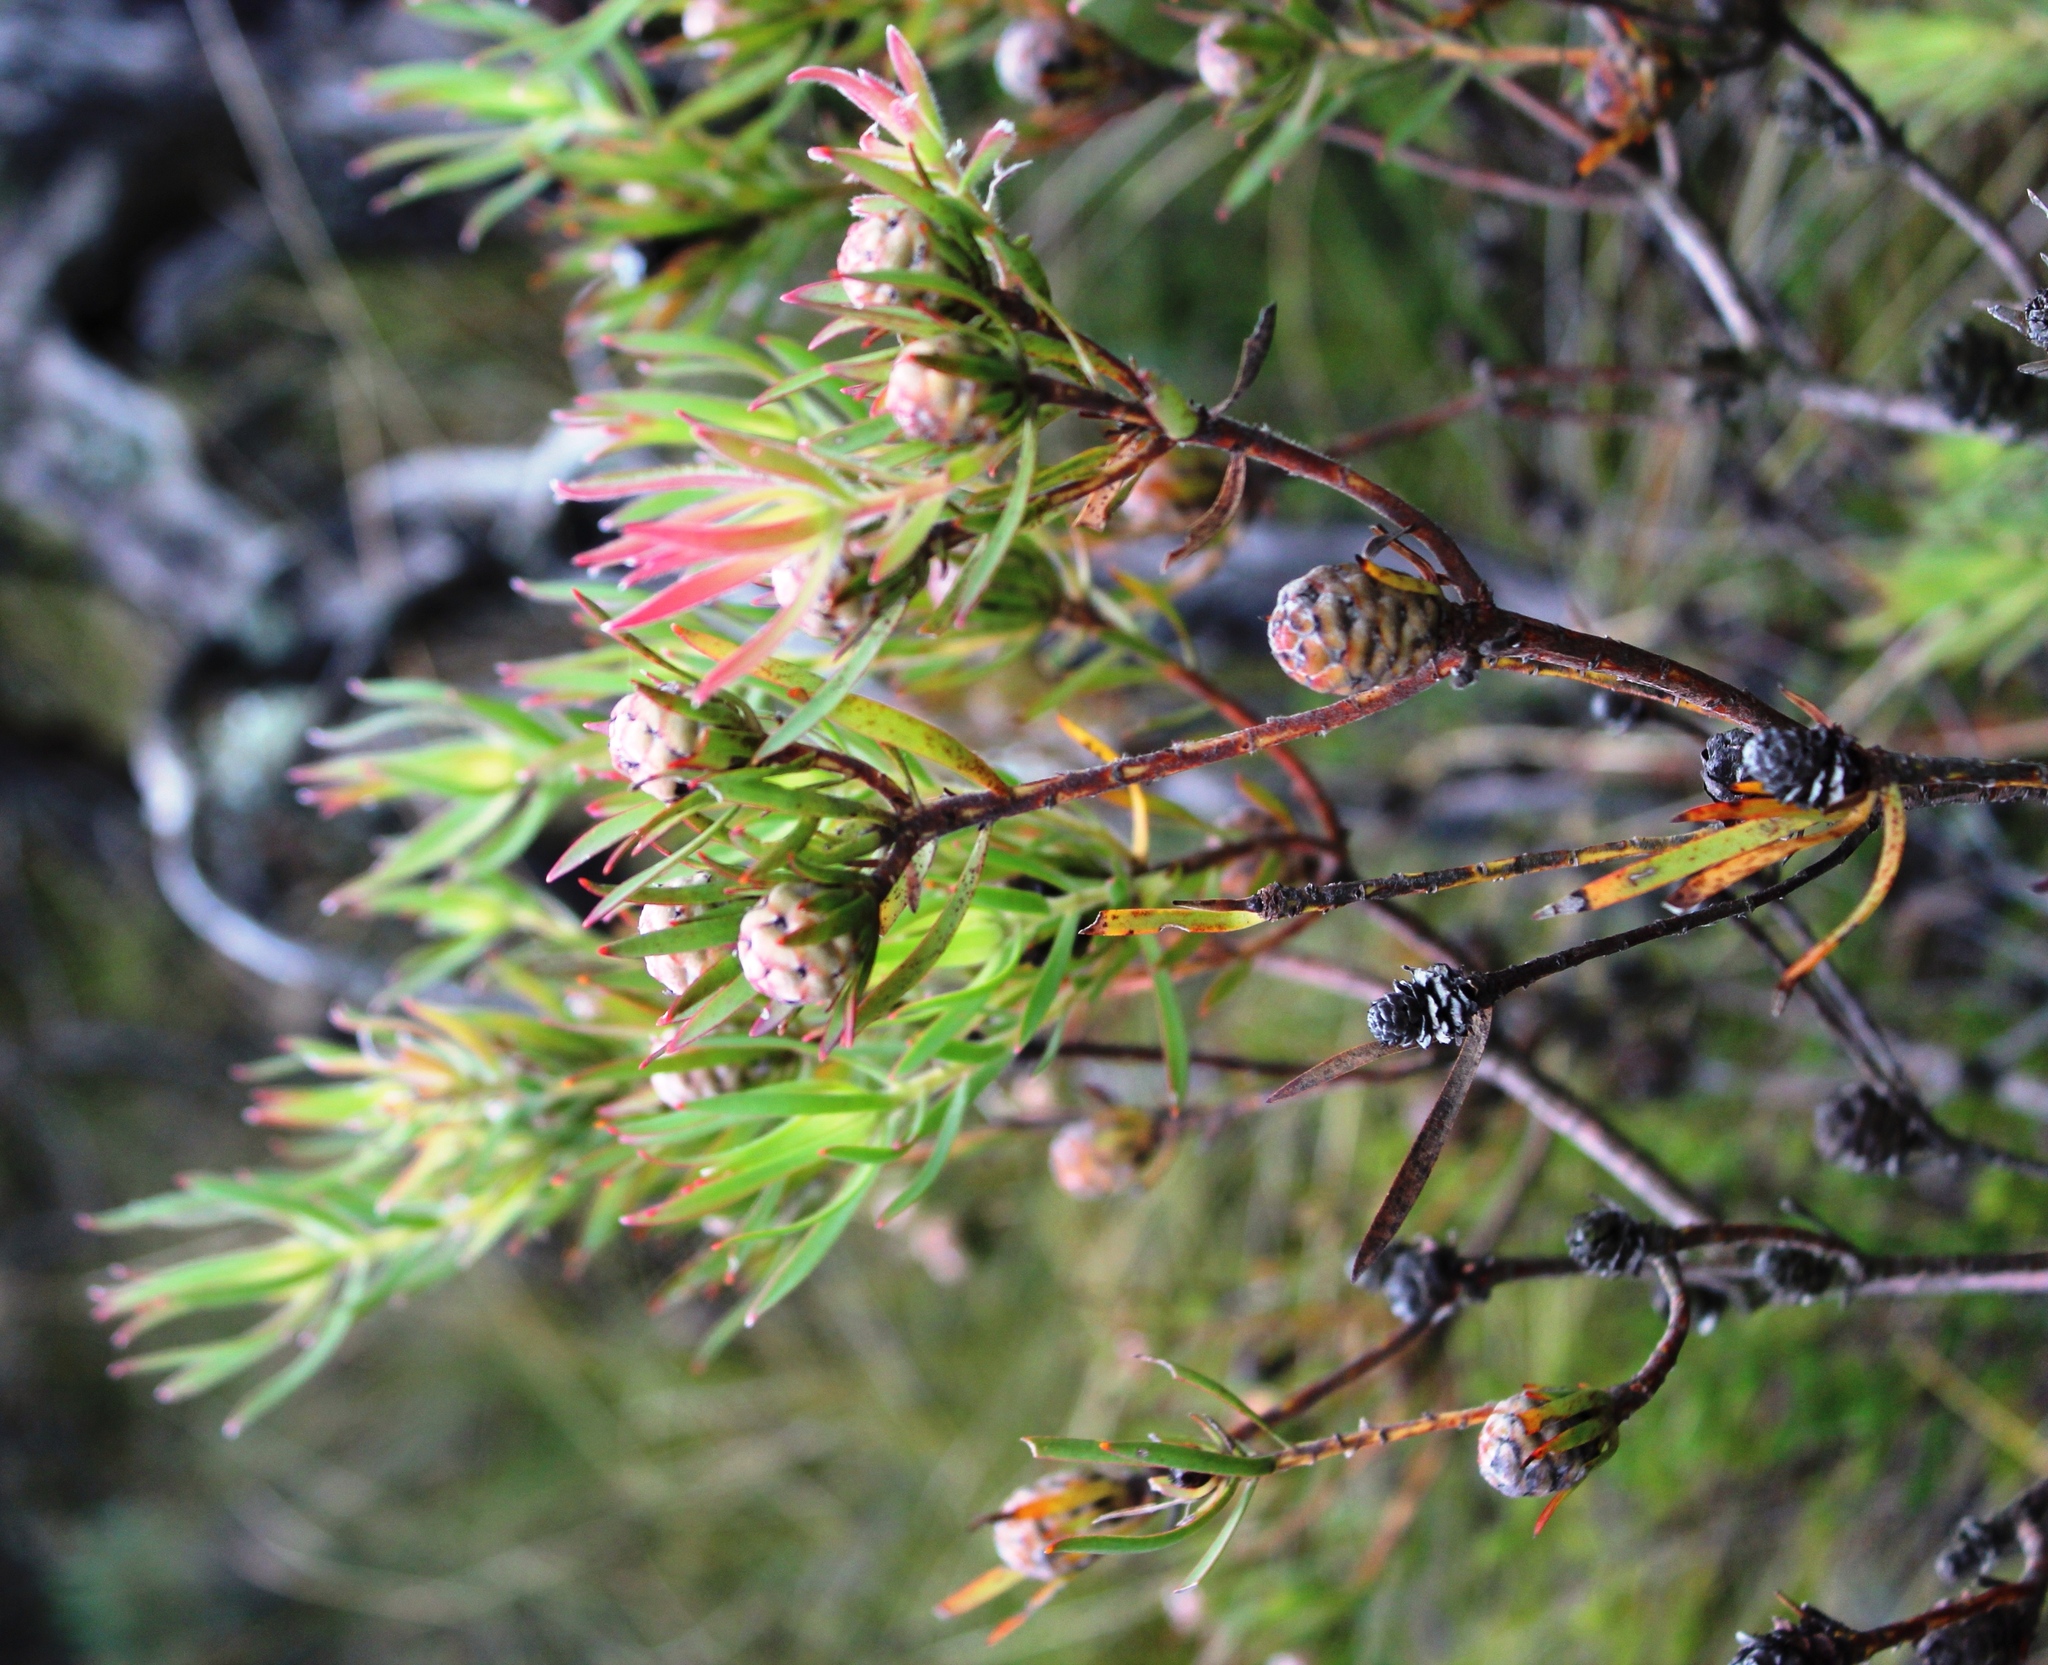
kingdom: Plantae
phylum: Tracheophyta
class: Magnoliopsida
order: Proteales
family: Proteaceae
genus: Leucadendron
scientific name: Leucadendron lanigerum
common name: Shale conebush
